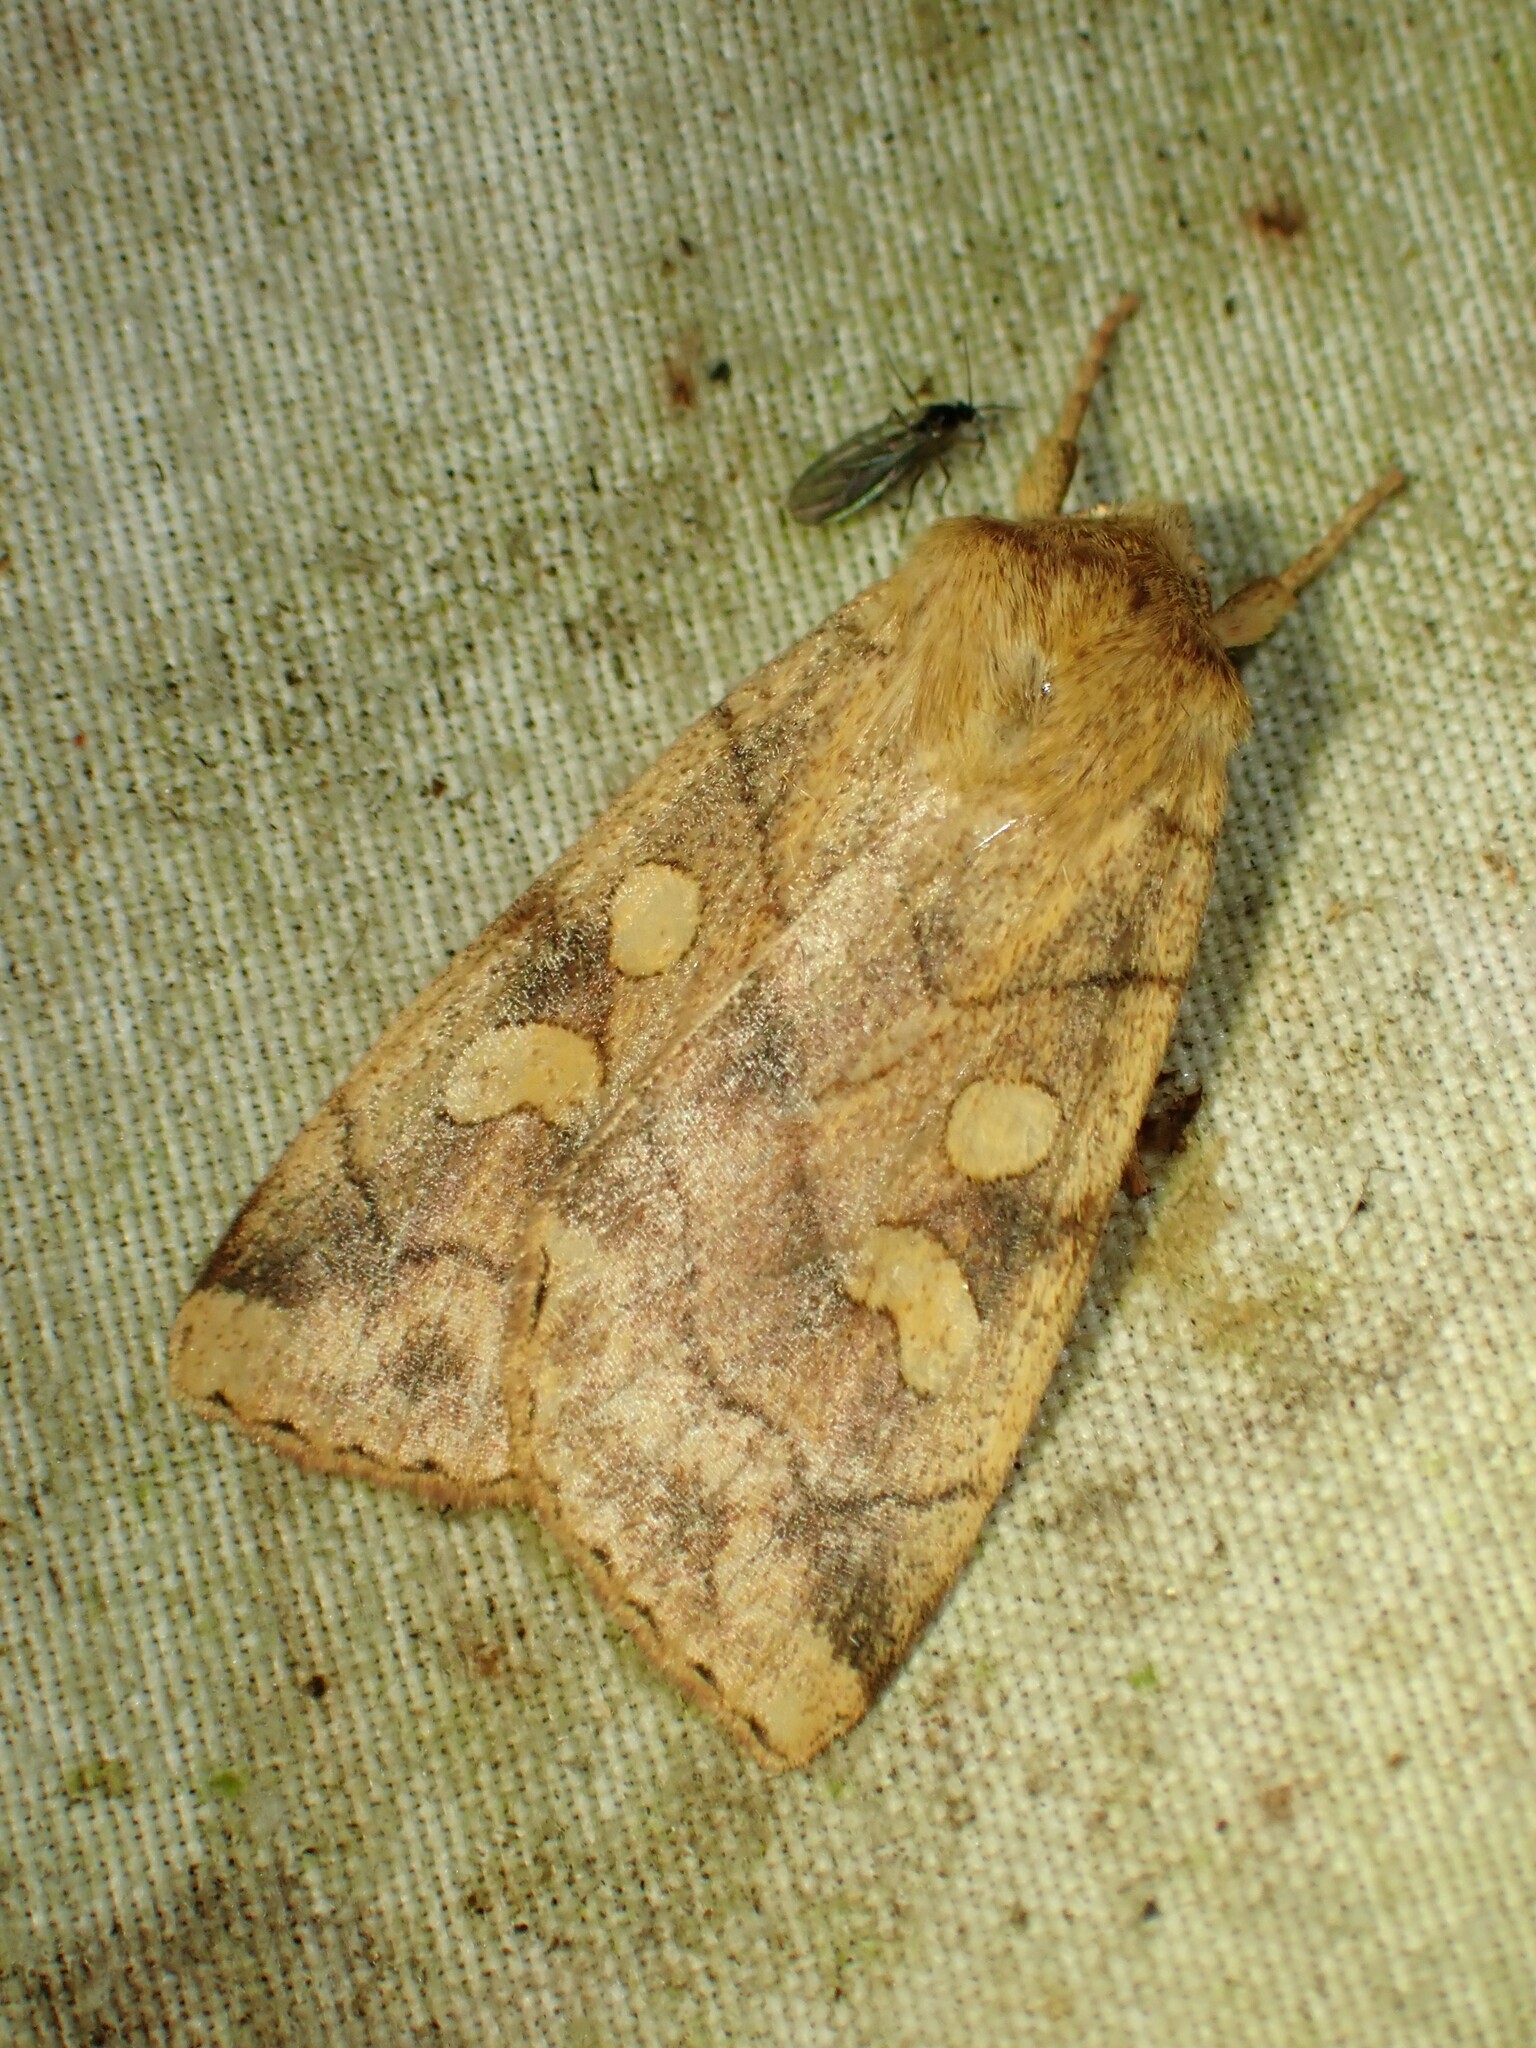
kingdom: Animalia
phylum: Arthropoda
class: Insecta
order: Lepidoptera
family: Noctuidae
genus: Enargia
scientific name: Enargia decolor
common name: Aspen twoleaf tier moth
